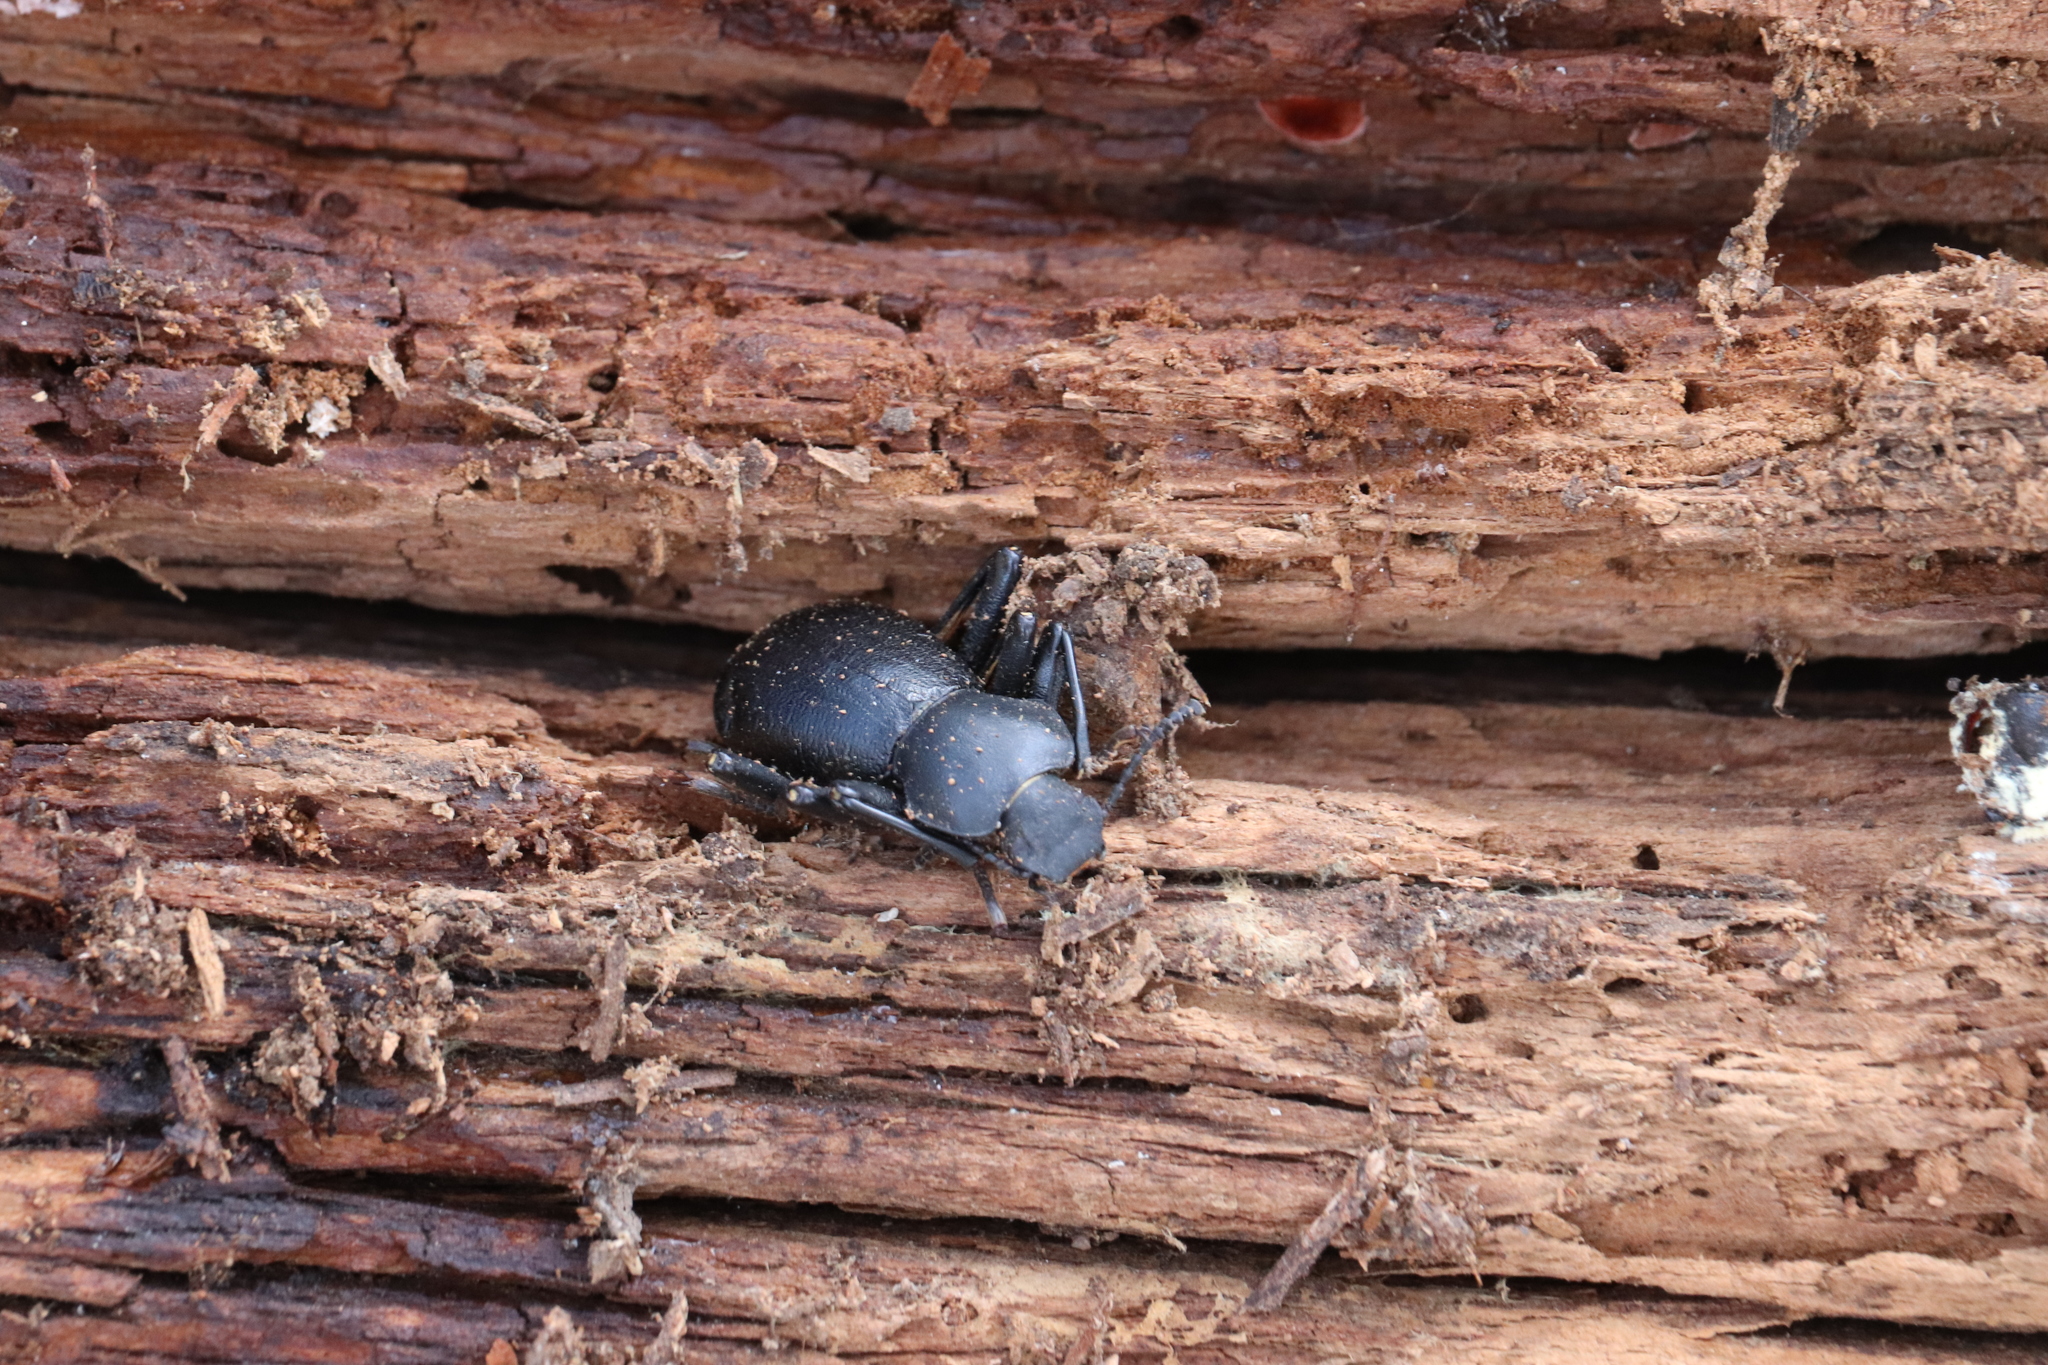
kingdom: Animalia
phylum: Arthropoda
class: Insecta
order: Coleoptera
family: Tenebrionidae
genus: Coelocnemis
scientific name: Coelocnemis dilaticollis
